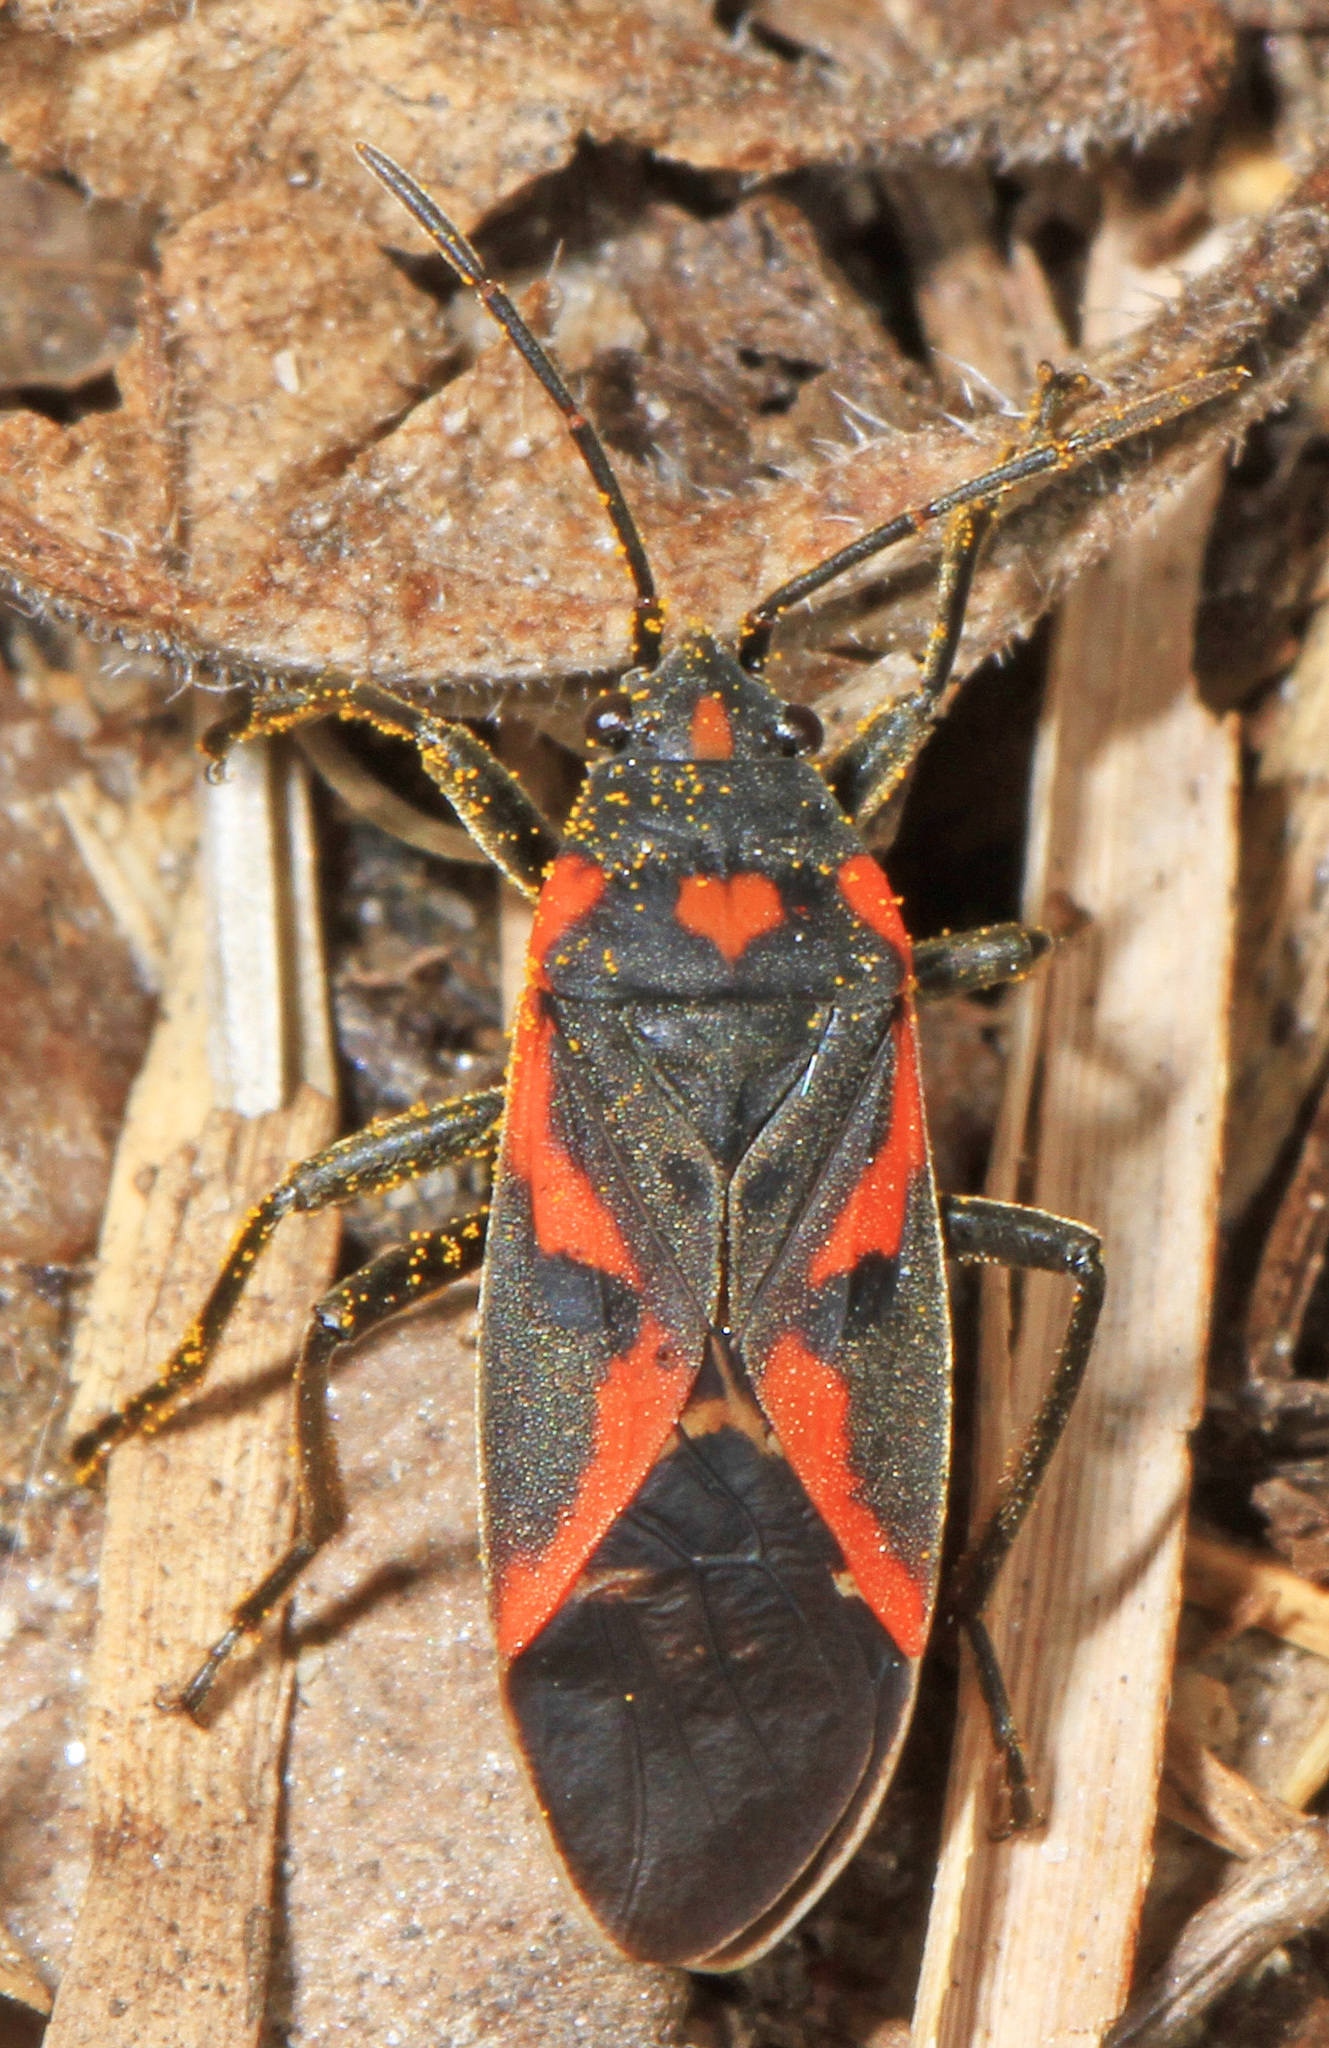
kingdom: Animalia
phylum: Arthropoda
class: Insecta
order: Hemiptera
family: Lygaeidae
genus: Lygaeus
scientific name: Lygaeus kalmii
